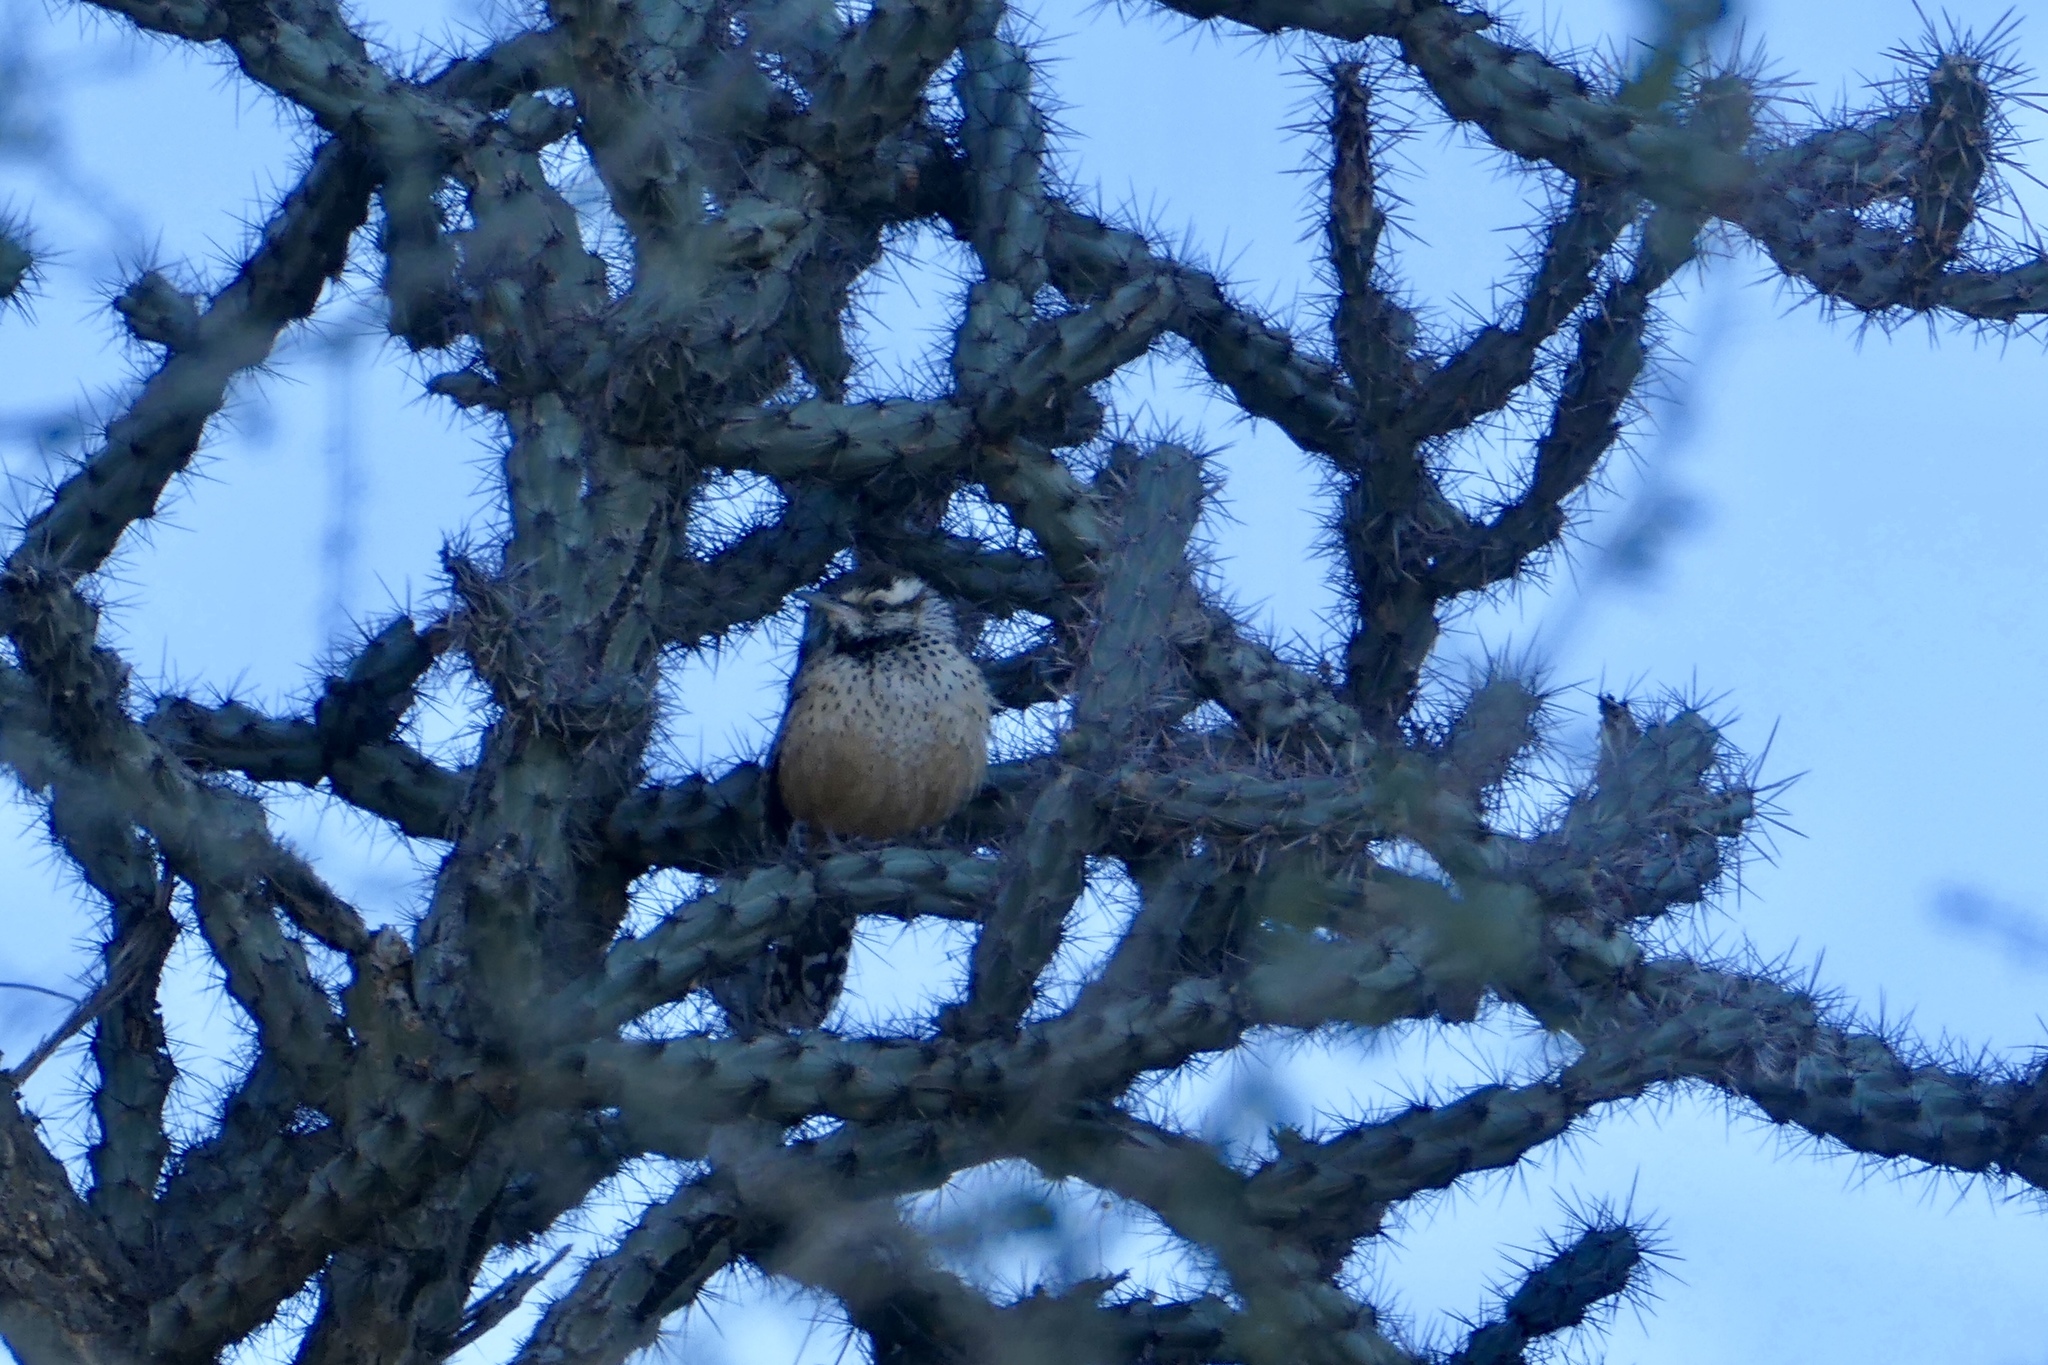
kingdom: Animalia
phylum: Chordata
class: Aves
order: Passeriformes
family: Troglodytidae
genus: Campylorhynchus
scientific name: Campylorhynchus brunneicapillus
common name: Cactus wren
